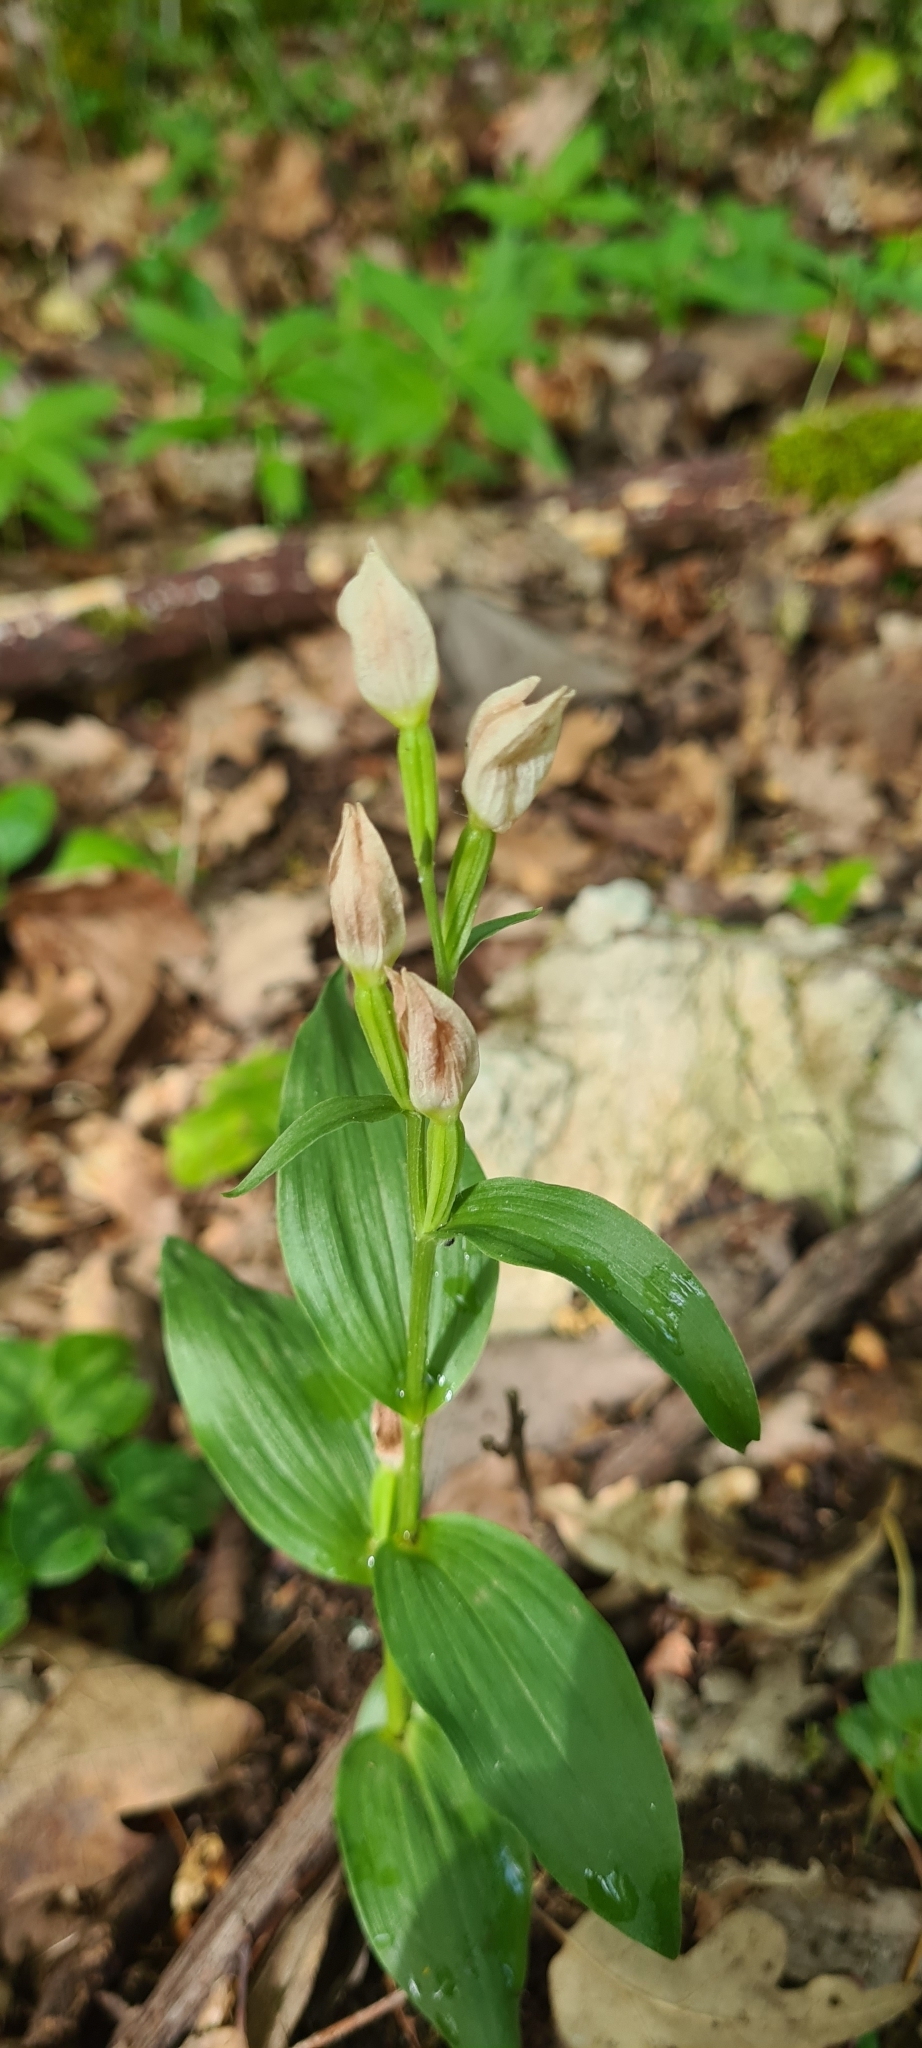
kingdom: Plantae
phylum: Tracheophyta
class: Liliopsida
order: Asparagales
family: Orchidaceae
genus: Cephalanthera
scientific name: Cephalanthera damasonium
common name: White helleborine
